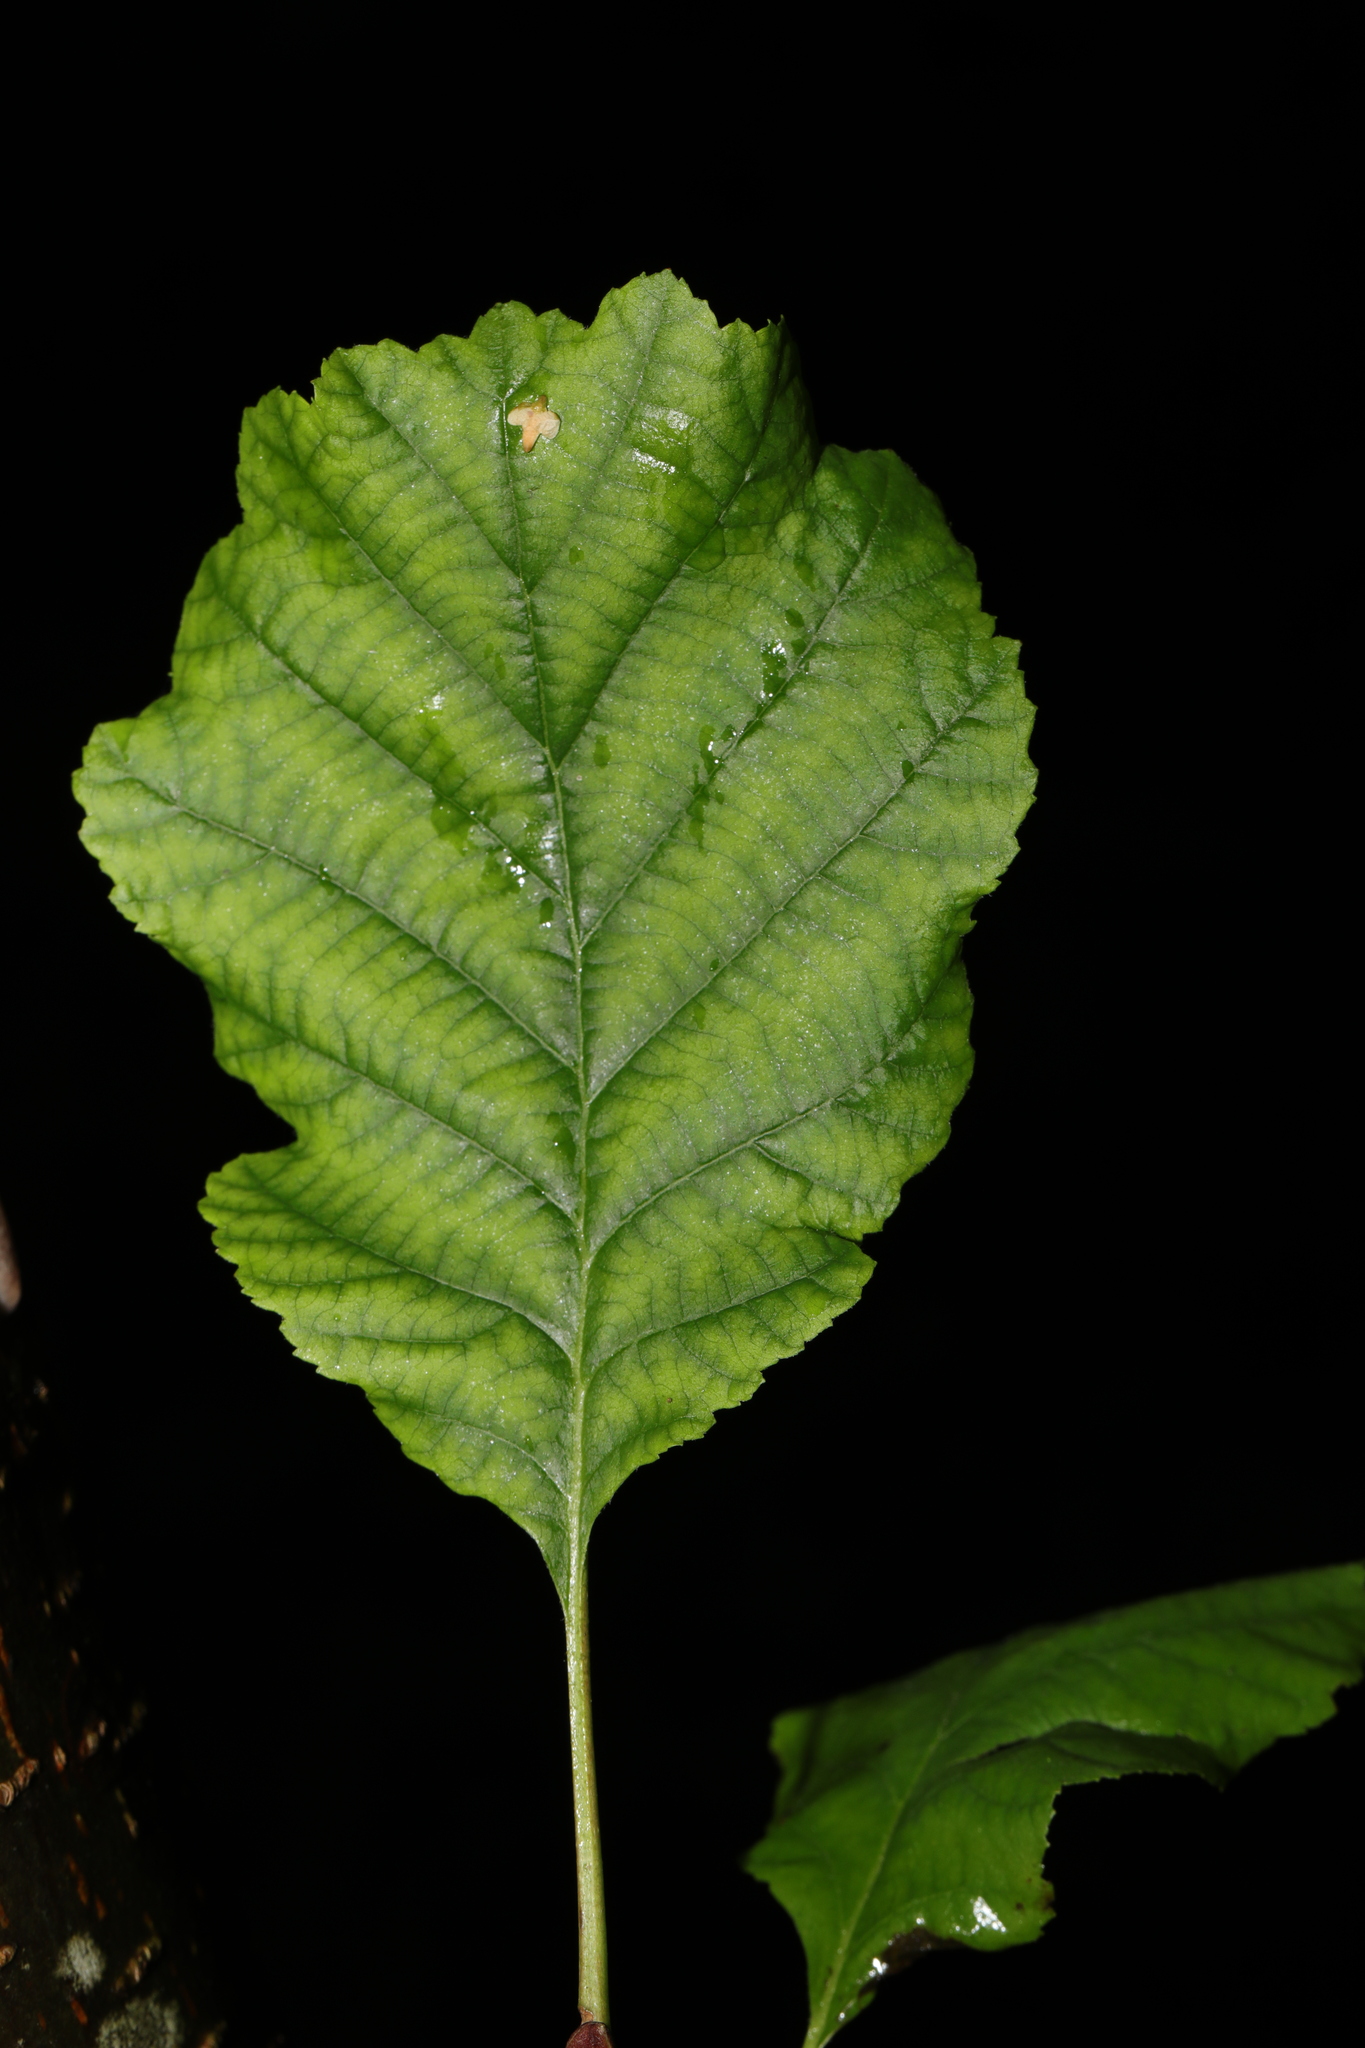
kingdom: Plantae
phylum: Tracheophyta
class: Magnoliopsida
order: Fagales
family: Betulaceae
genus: Alnus
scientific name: Alnus glutinosa
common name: Black alder
